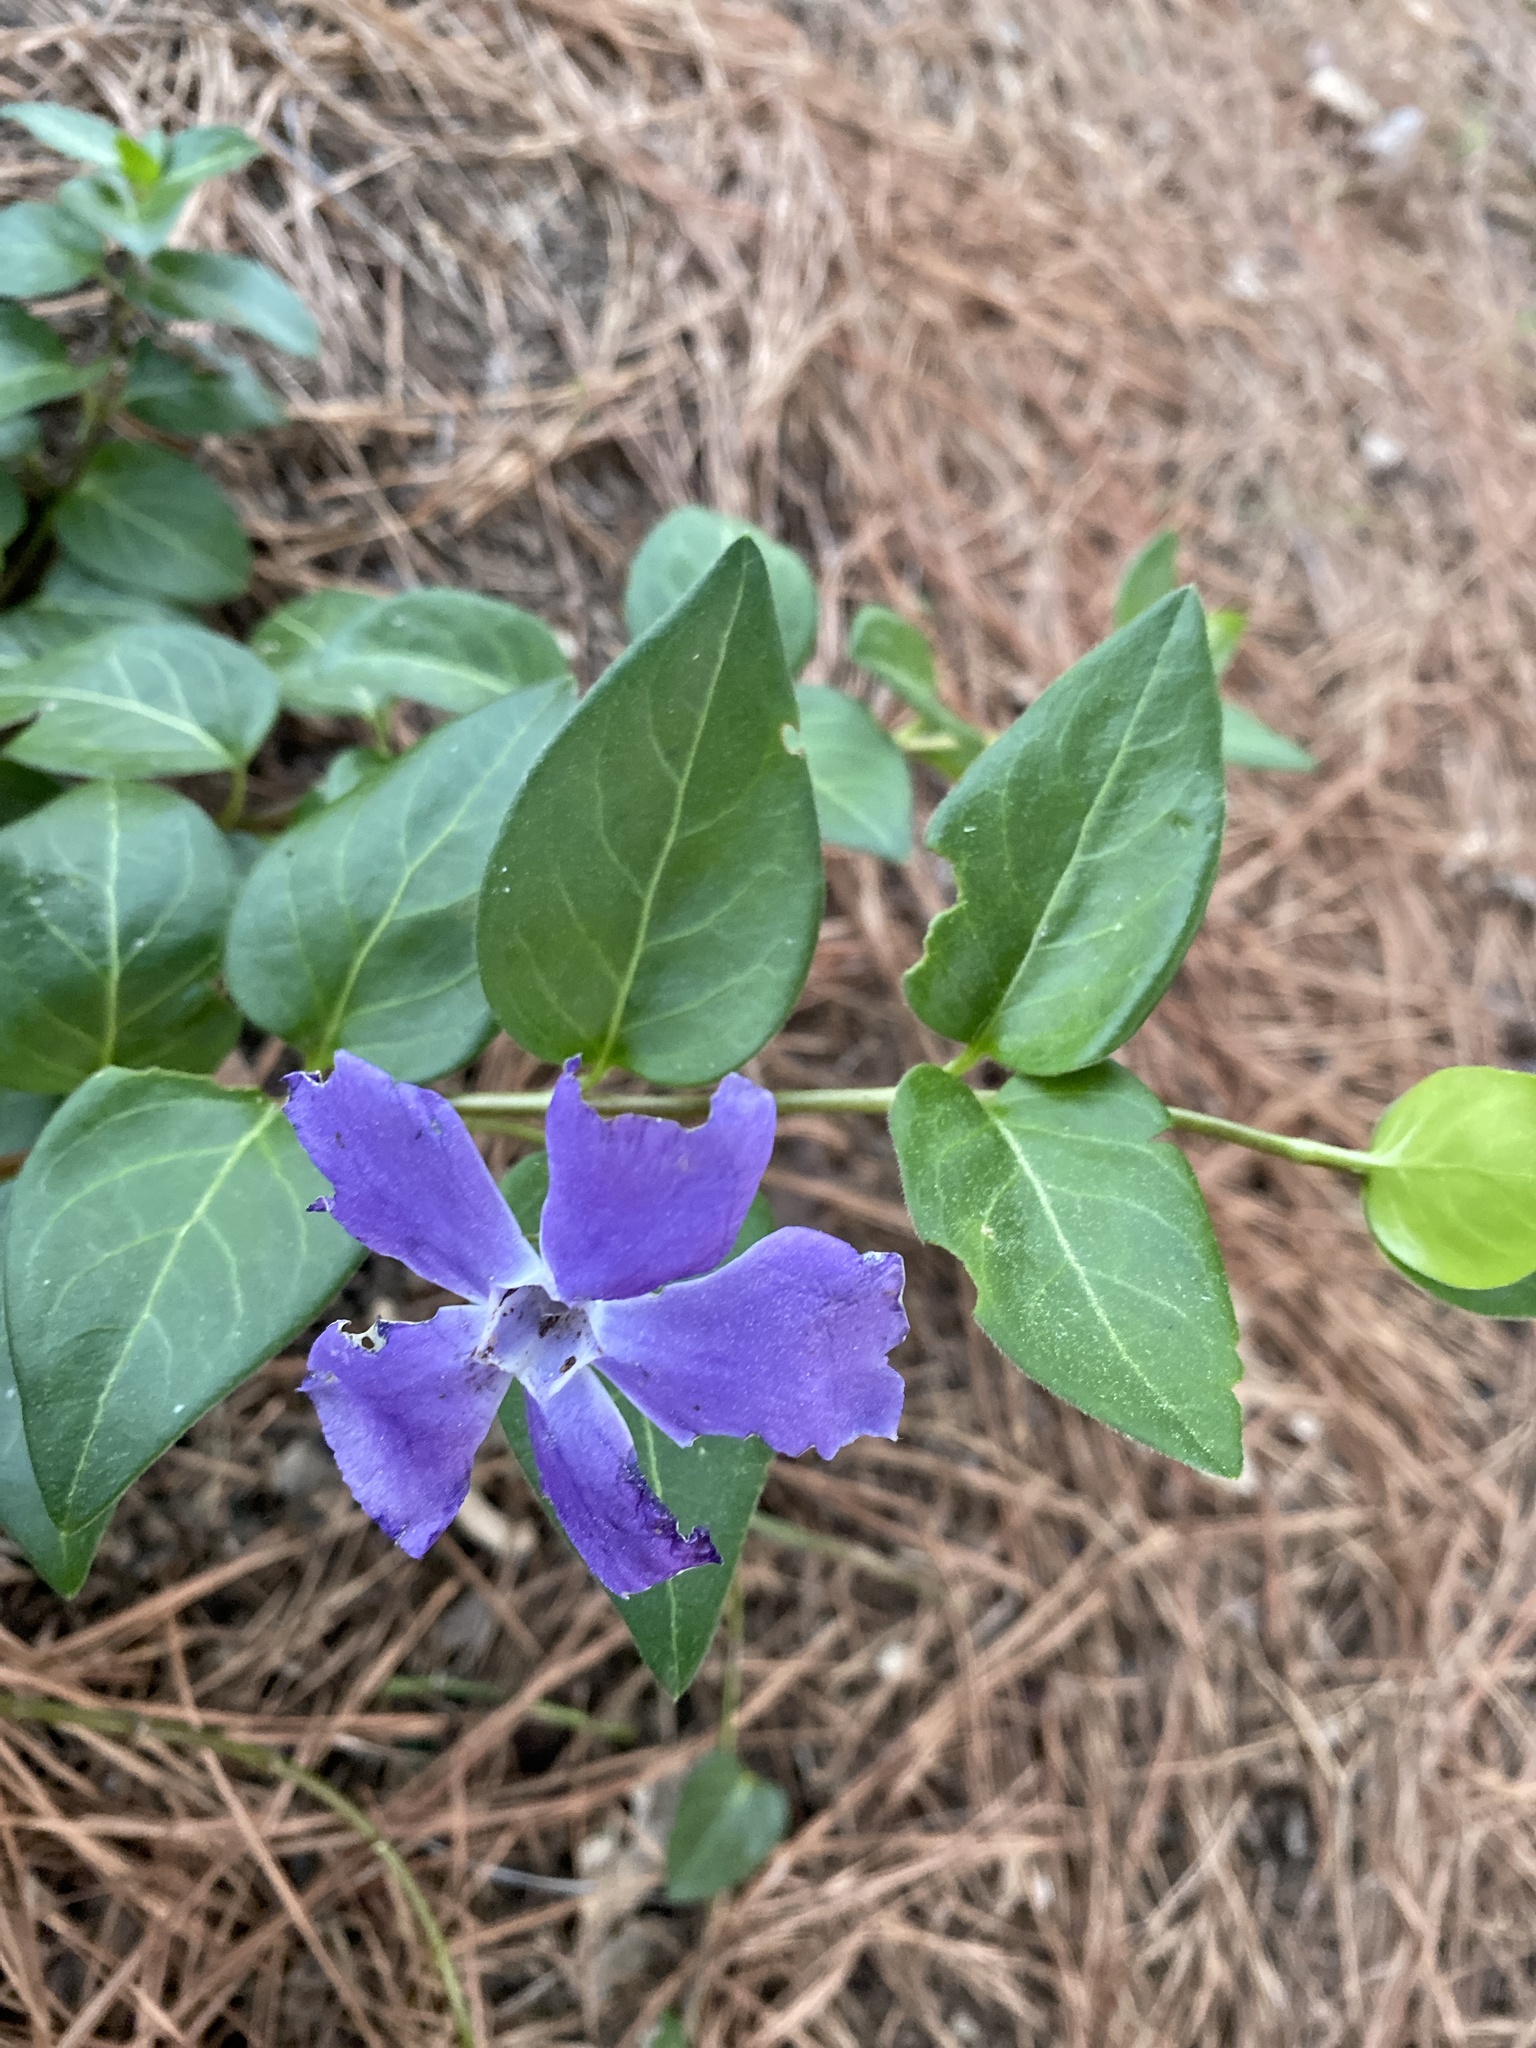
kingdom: Plantae
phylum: Tracheophyta
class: Magnoliopsida
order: Gentianales
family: Apocynaceae
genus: Vinca
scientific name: Vinca major
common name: Greater periwinkle
